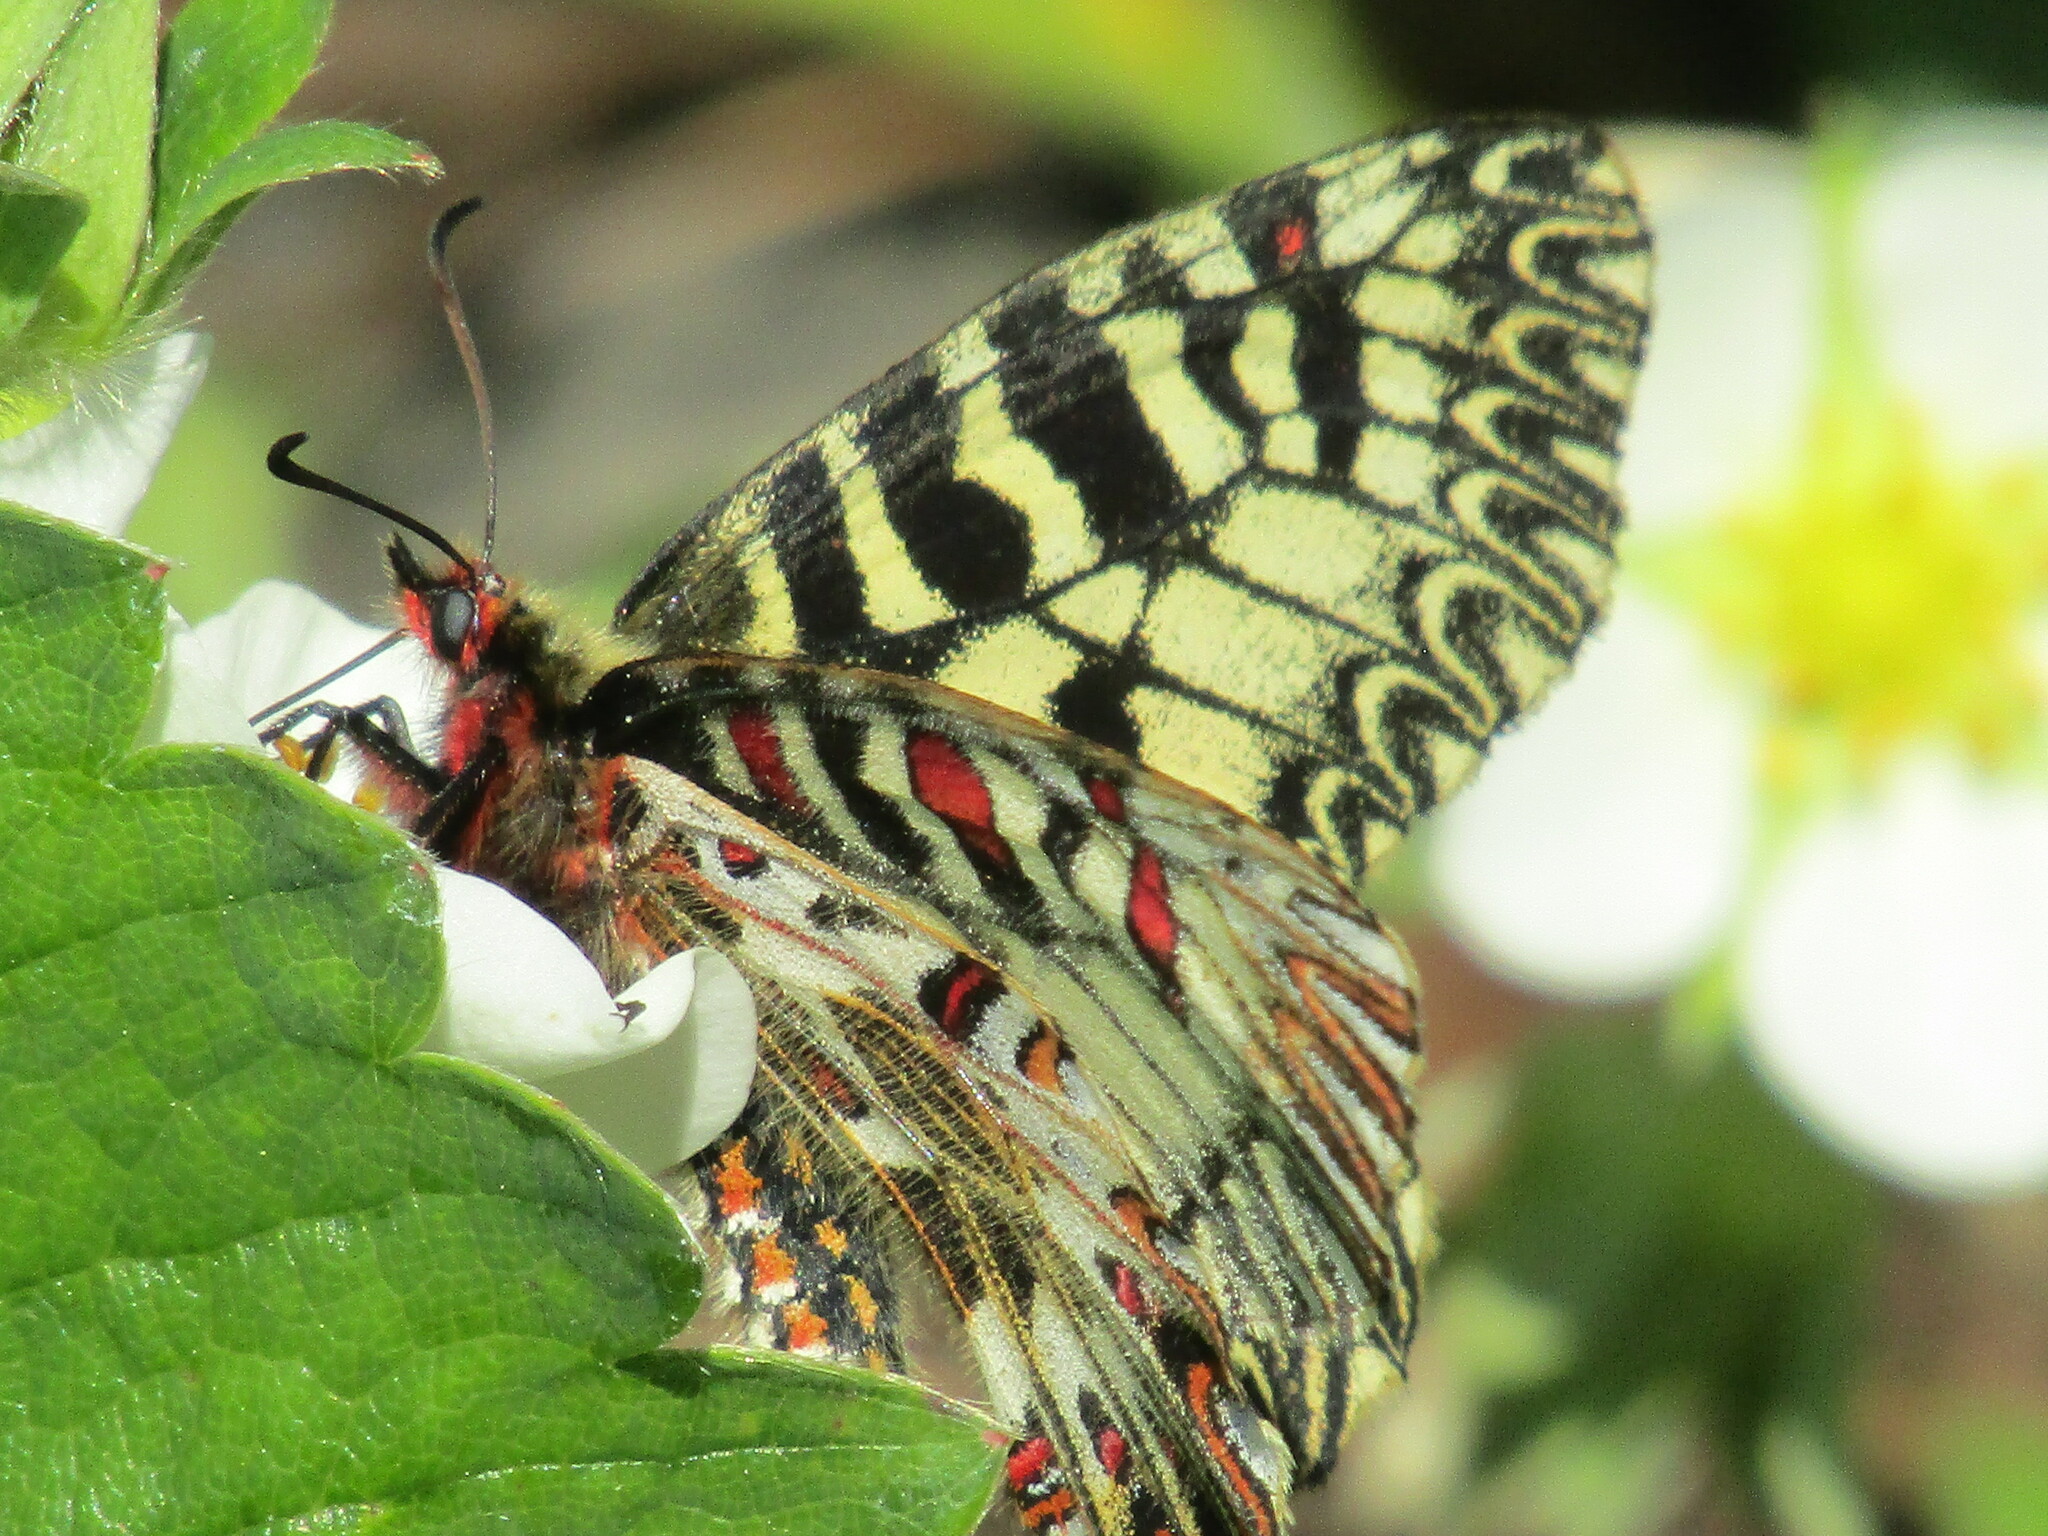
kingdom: Animalia
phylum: Arthropoda
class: Insecta
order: Lepidoptera
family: Papilionidae
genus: Zerynthia
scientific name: Zerynthia polyxena
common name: Southern festoon
